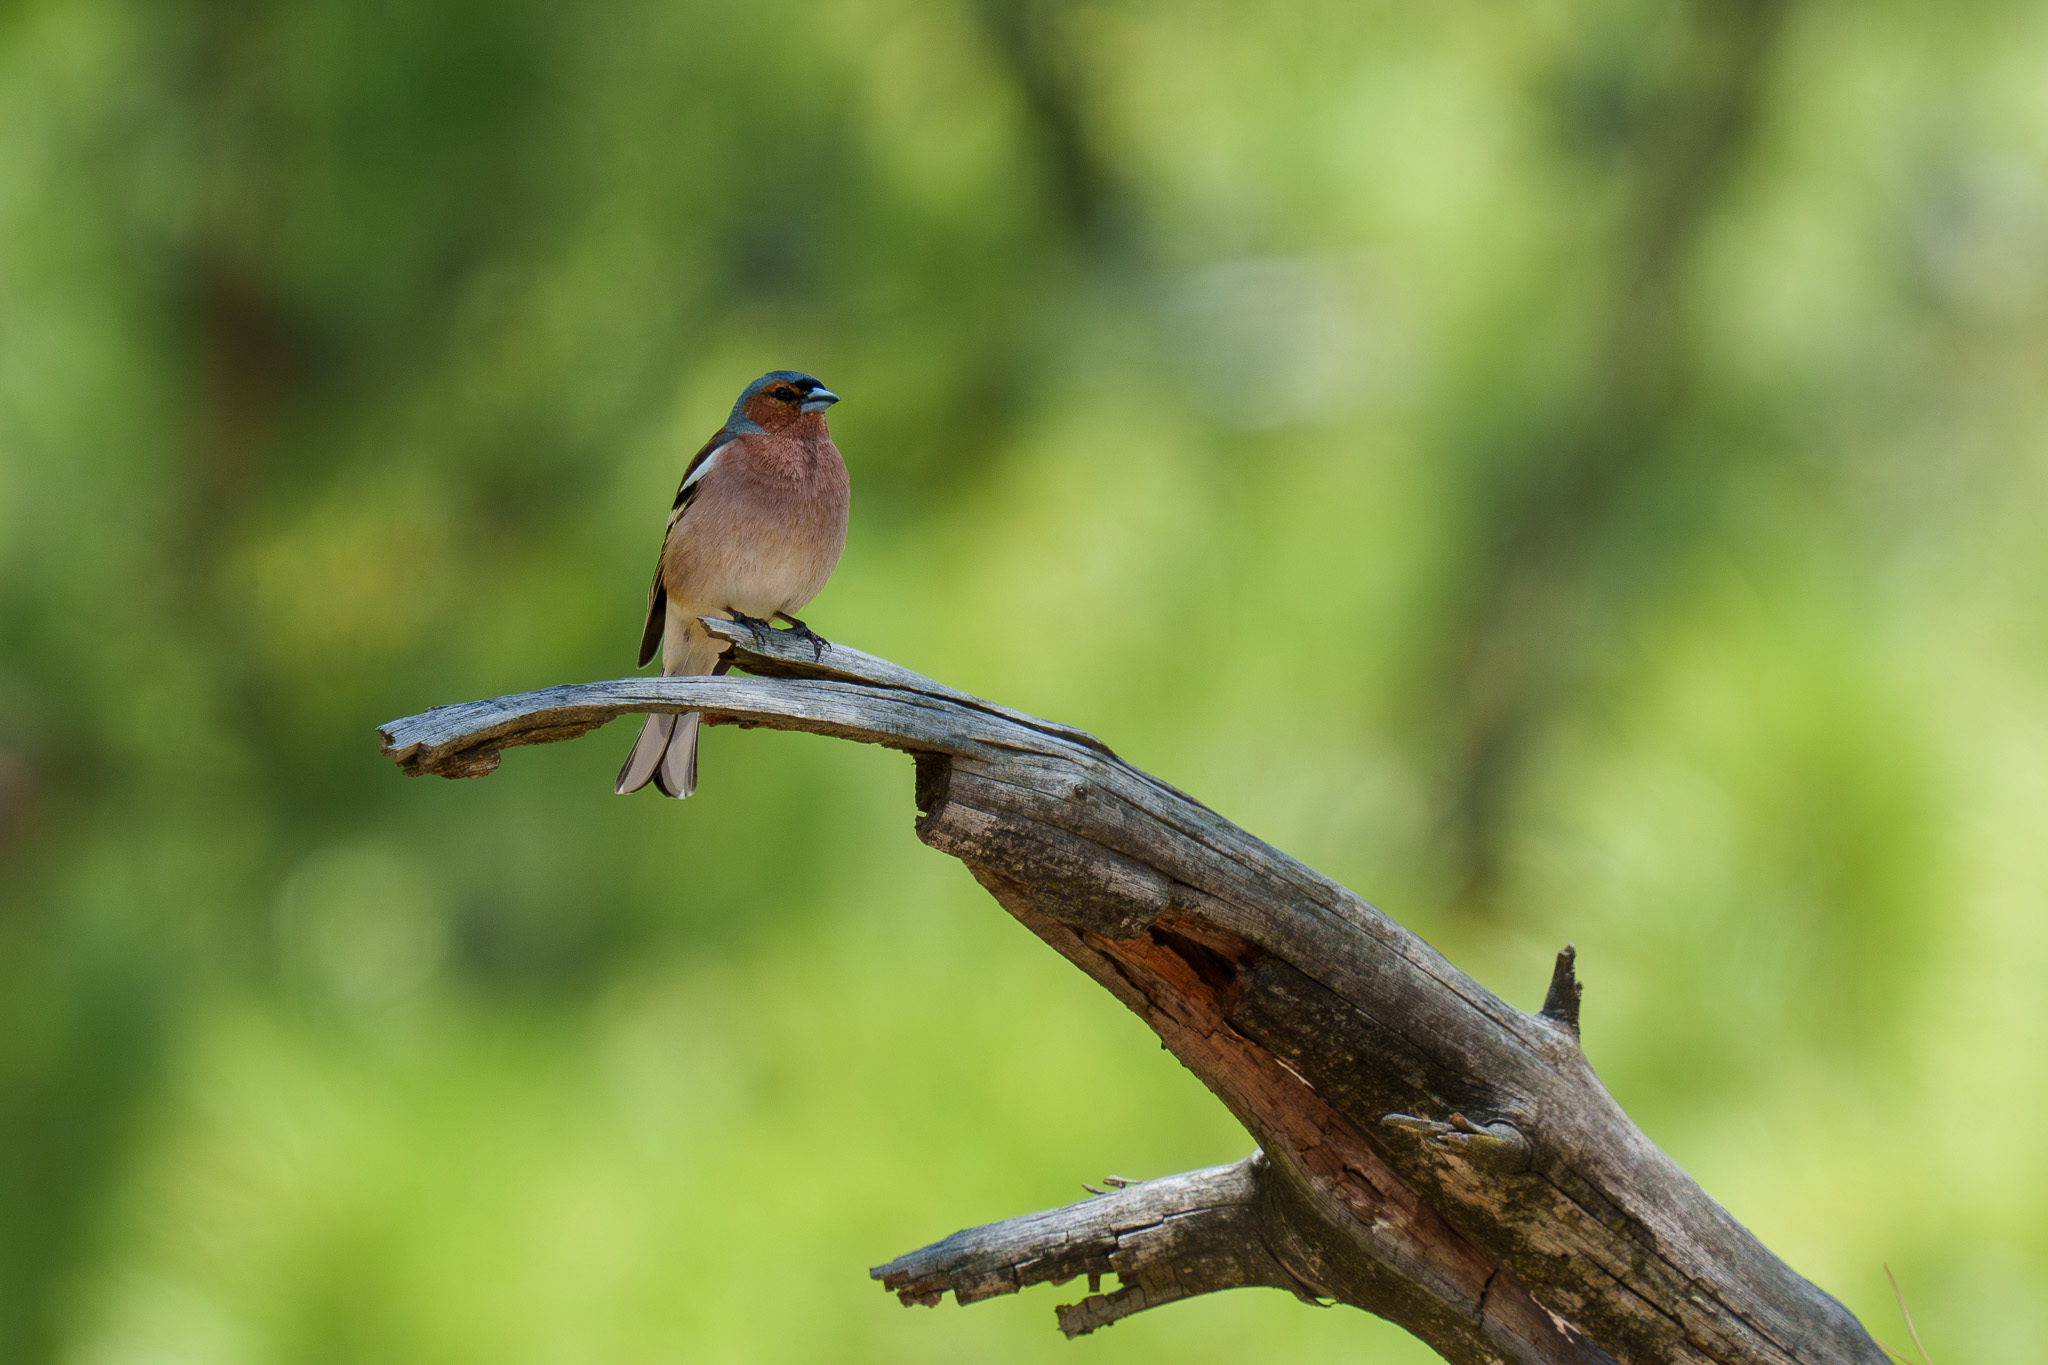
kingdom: Animalia
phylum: Chordata
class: Aves
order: Passeriformes
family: Fringillidae
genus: Fringilla
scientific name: Fringilla coelebs
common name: Common chaffinch
